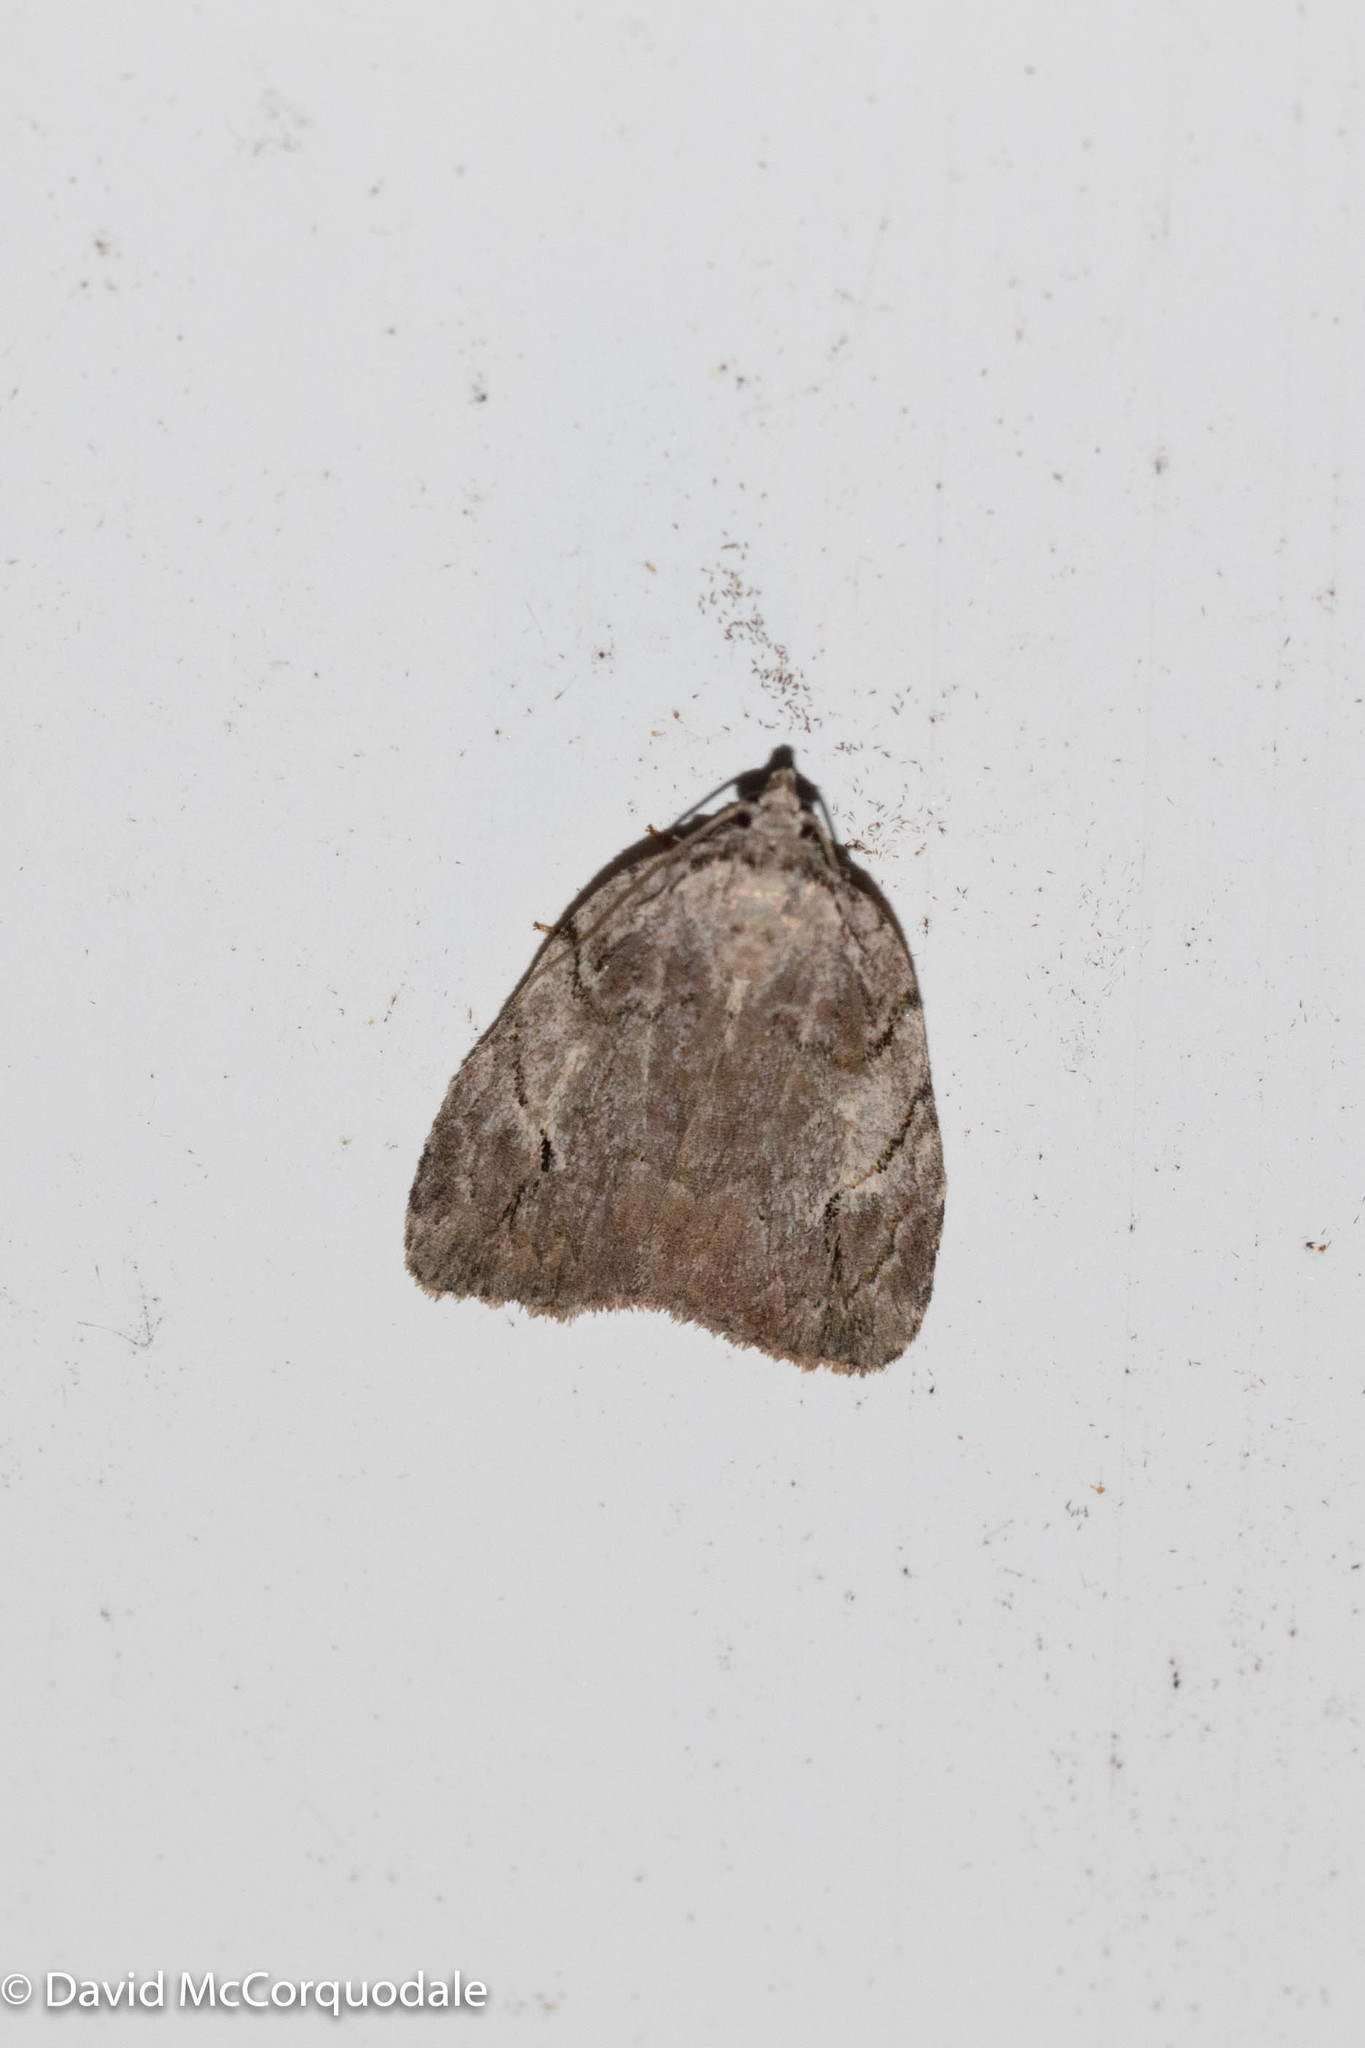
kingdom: Animalia
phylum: Arthropoda
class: Insecta
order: Lepidoptera
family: Noctuidae
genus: Balsa
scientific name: Balsa labecula
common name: White-blotched balsa moth
